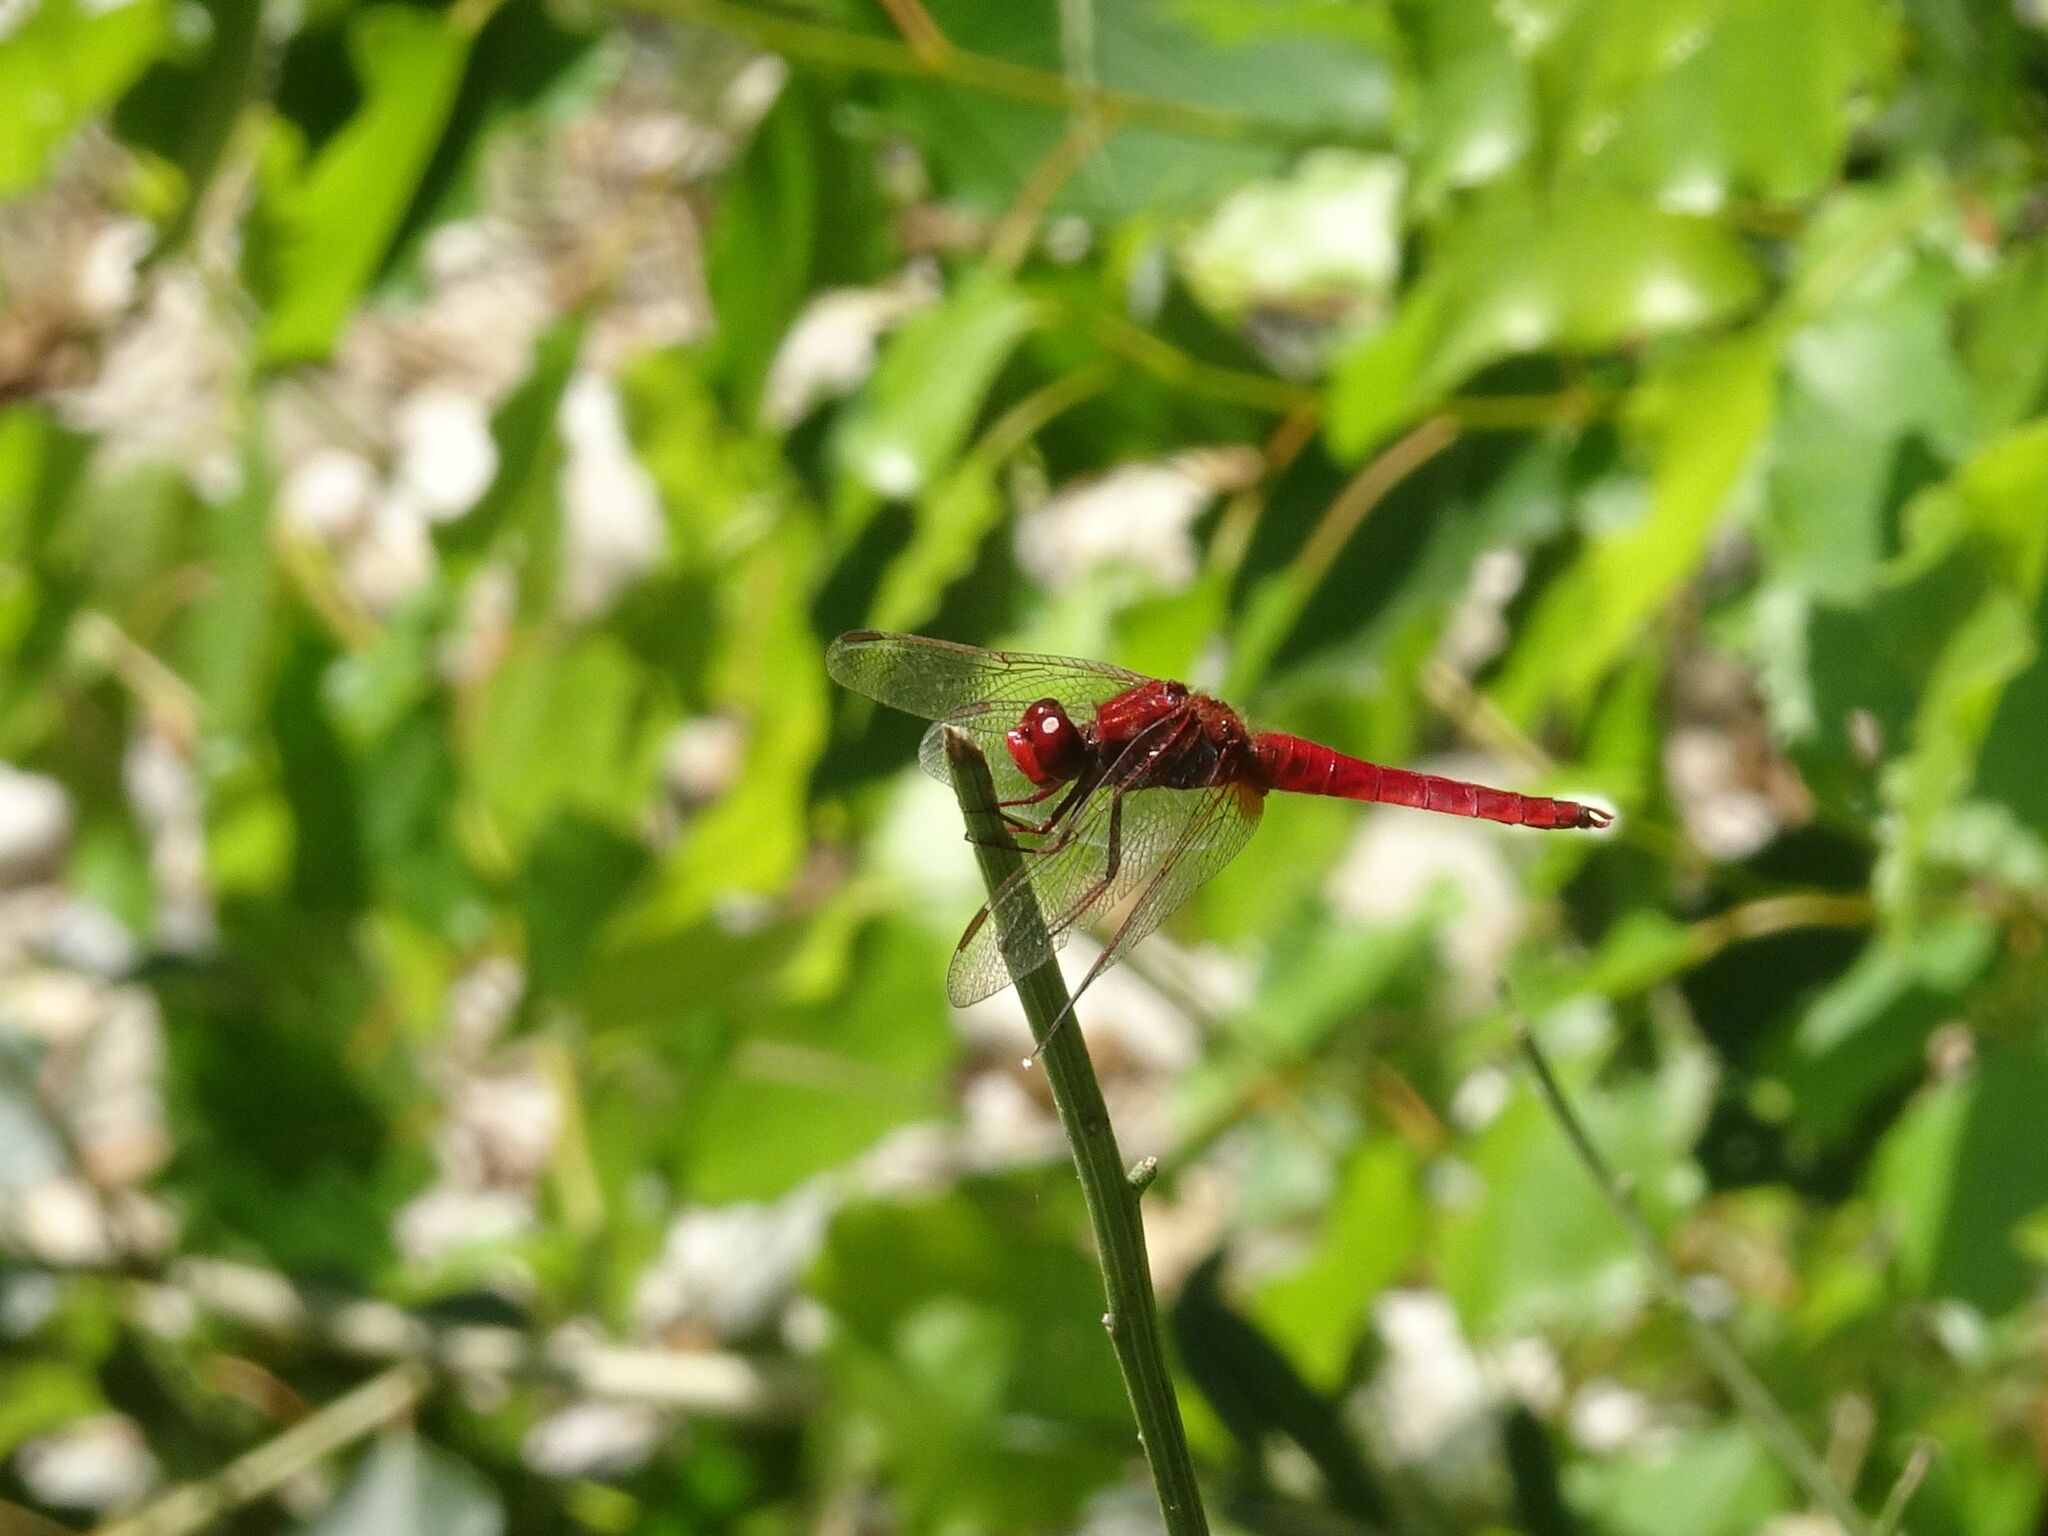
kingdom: Animalia
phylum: Arthropoda
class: Insecta
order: Odonata
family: Libellulidae
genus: Crocothemis
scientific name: Crocothemis erythraea
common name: Scarlet dragonfly
